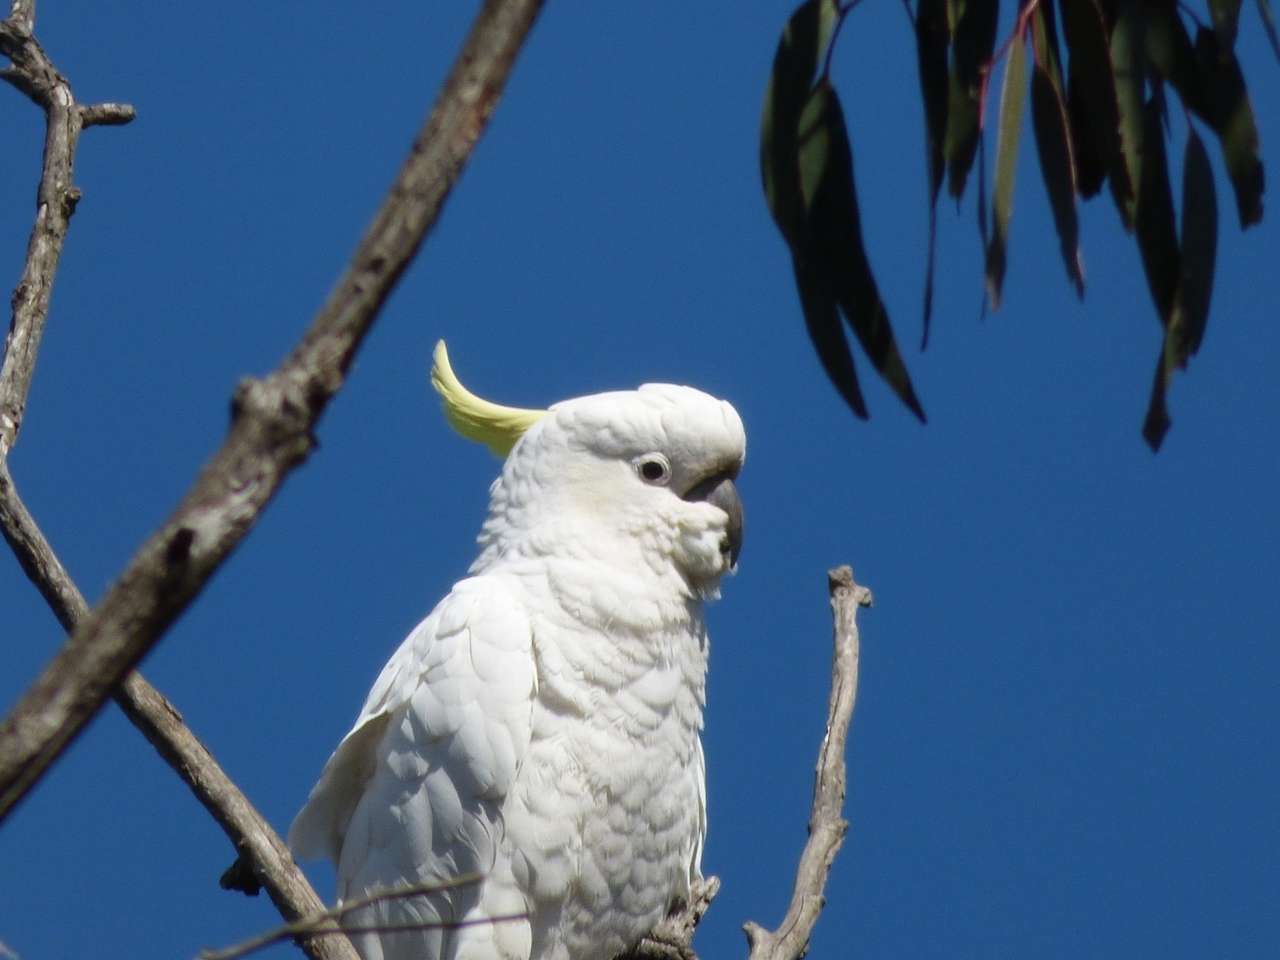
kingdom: Animalia
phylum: Chordata
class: Aves
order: Psittaciformes
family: Psittacidae
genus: Cacatua
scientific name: Cacatua galerita
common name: Sulphur-crested cockatoo
